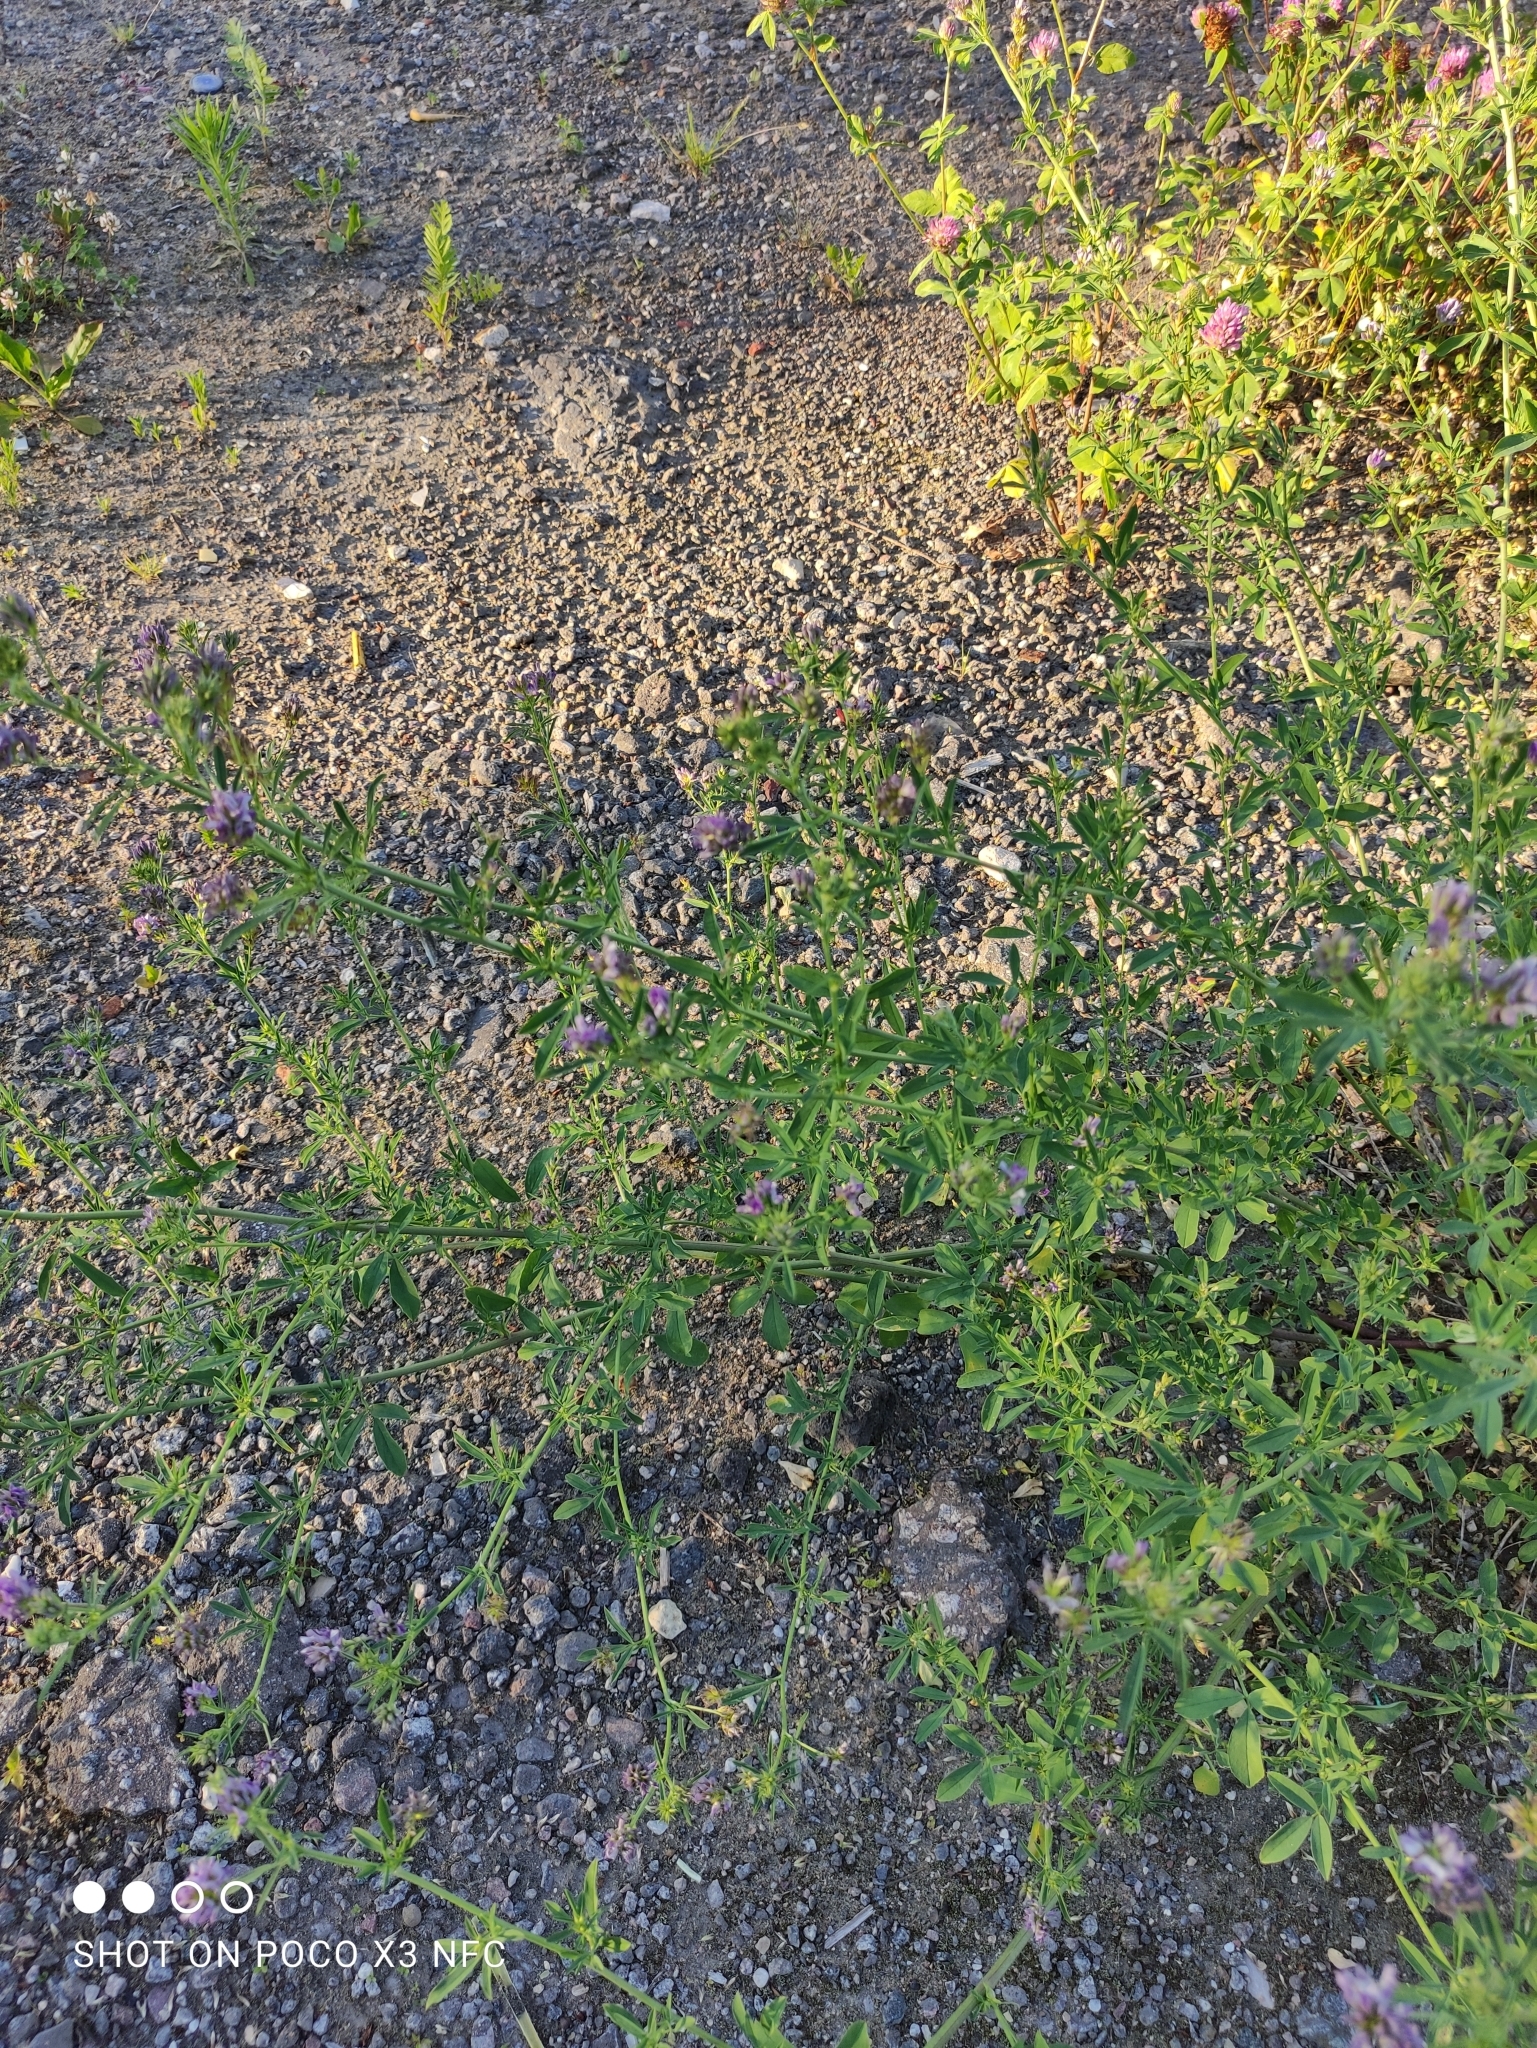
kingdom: Plantae
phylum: Tracheophyta
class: Magnoliopsida
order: Fabales
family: Fabaceae
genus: Medicago
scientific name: Medicago sativa
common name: Alfalfa
